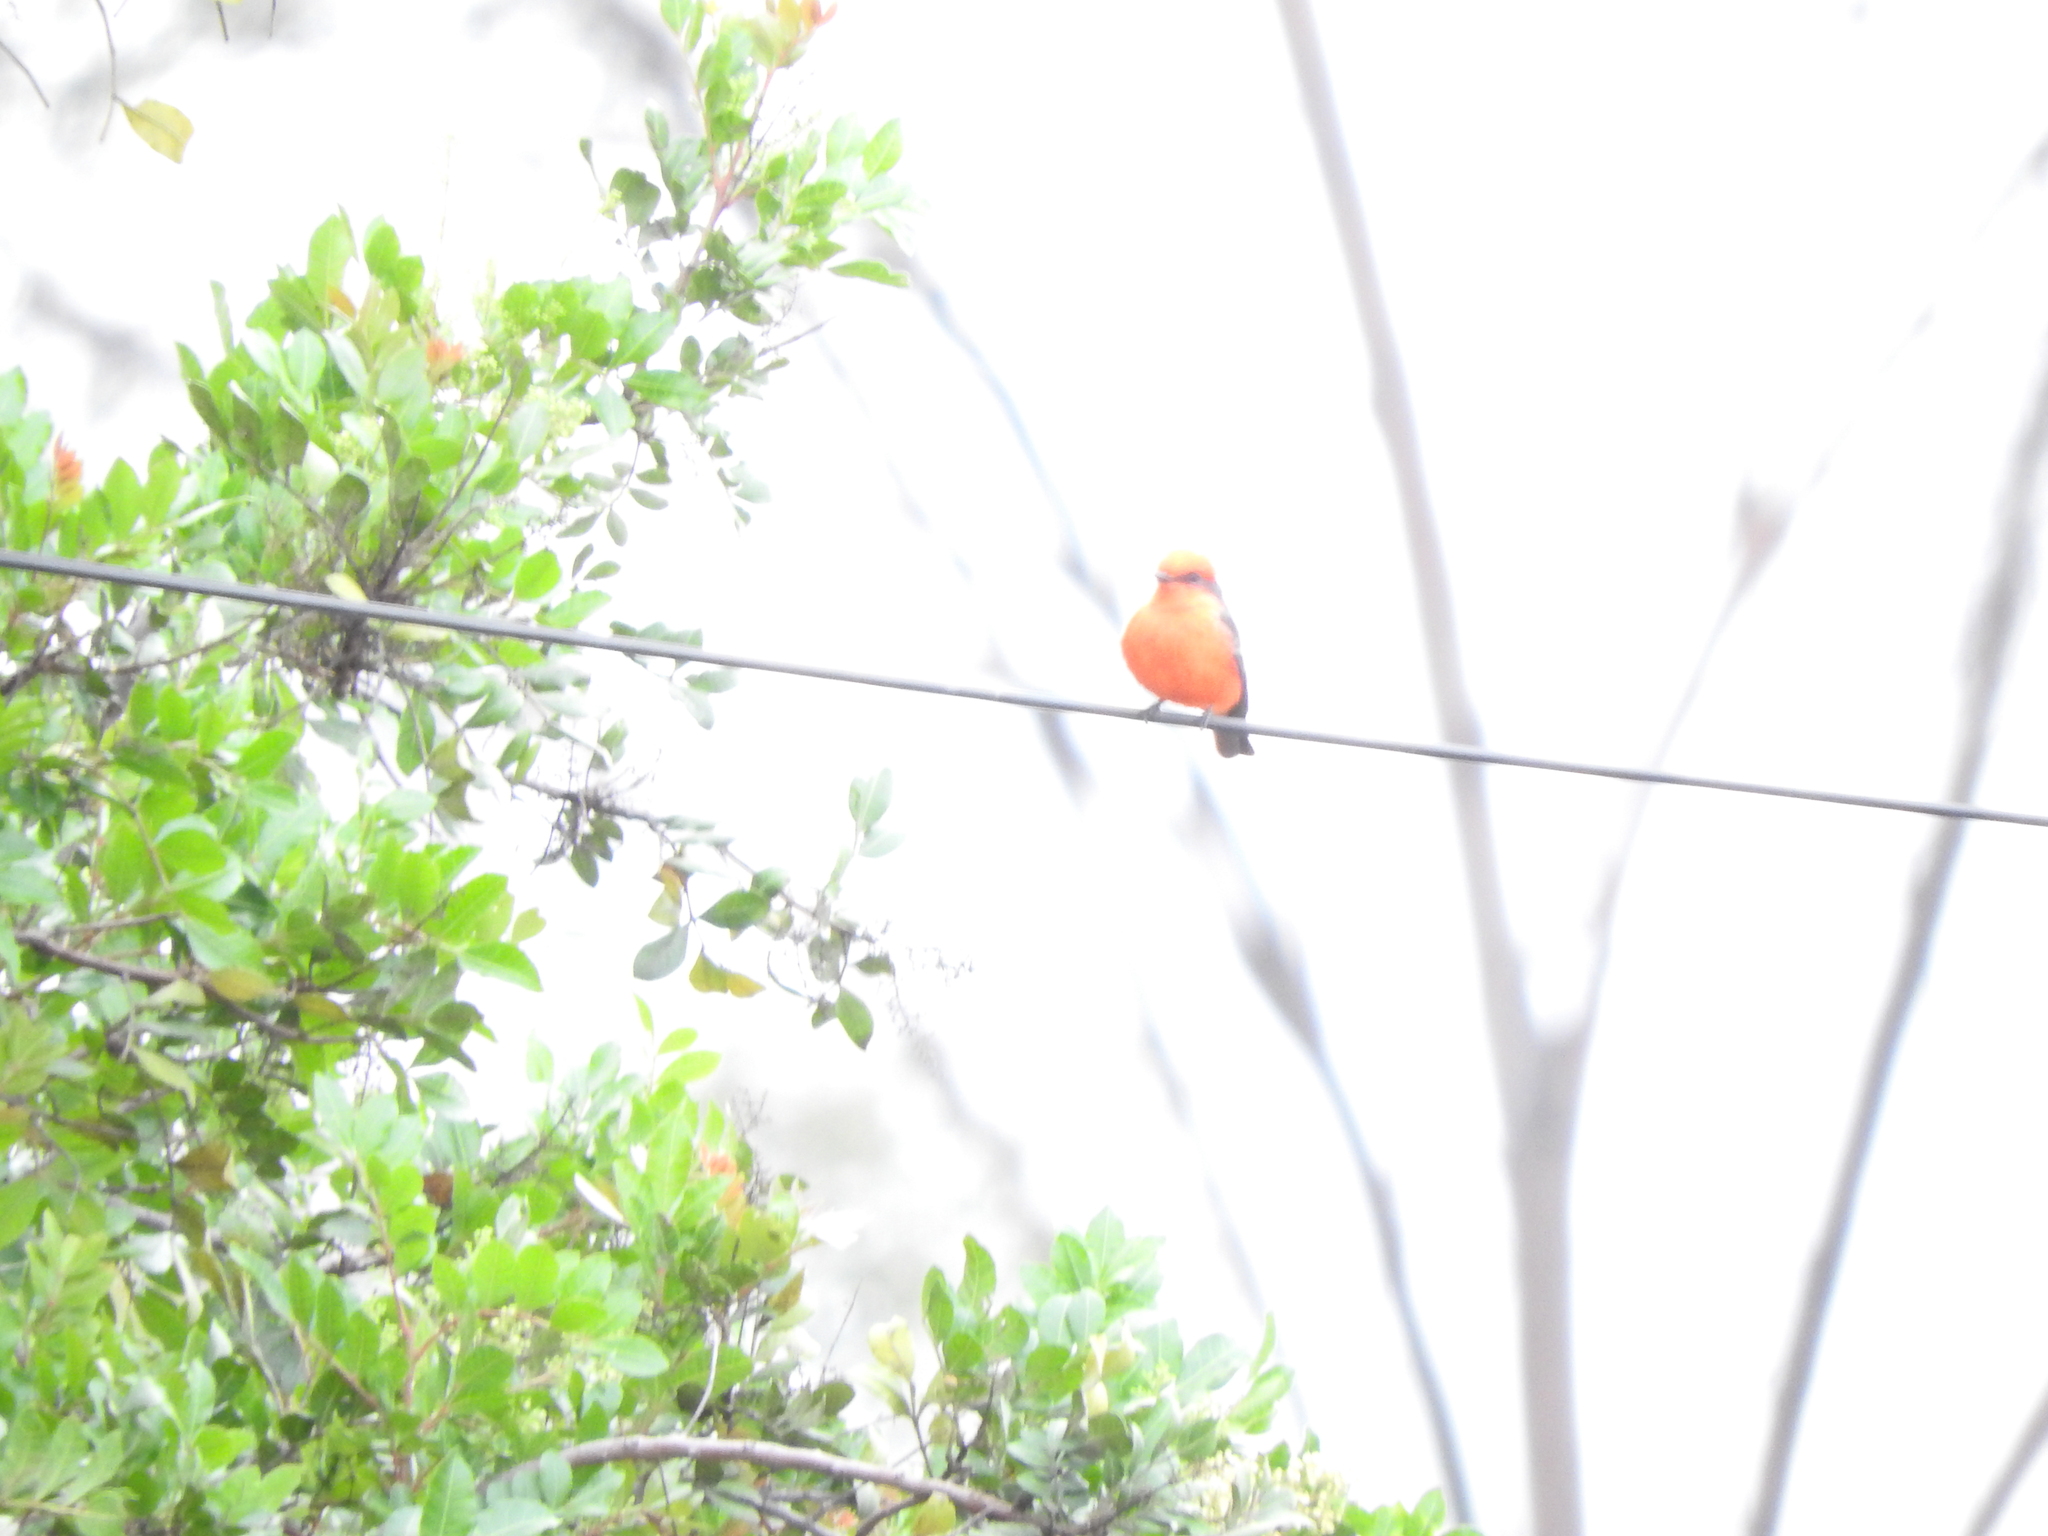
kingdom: Animalia
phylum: Chordata
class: Aves
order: Passeriformes
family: Tyrannidae
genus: Pyrocephalus
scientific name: Pyrocephalus rubinus
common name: Vermilion flycatcher
